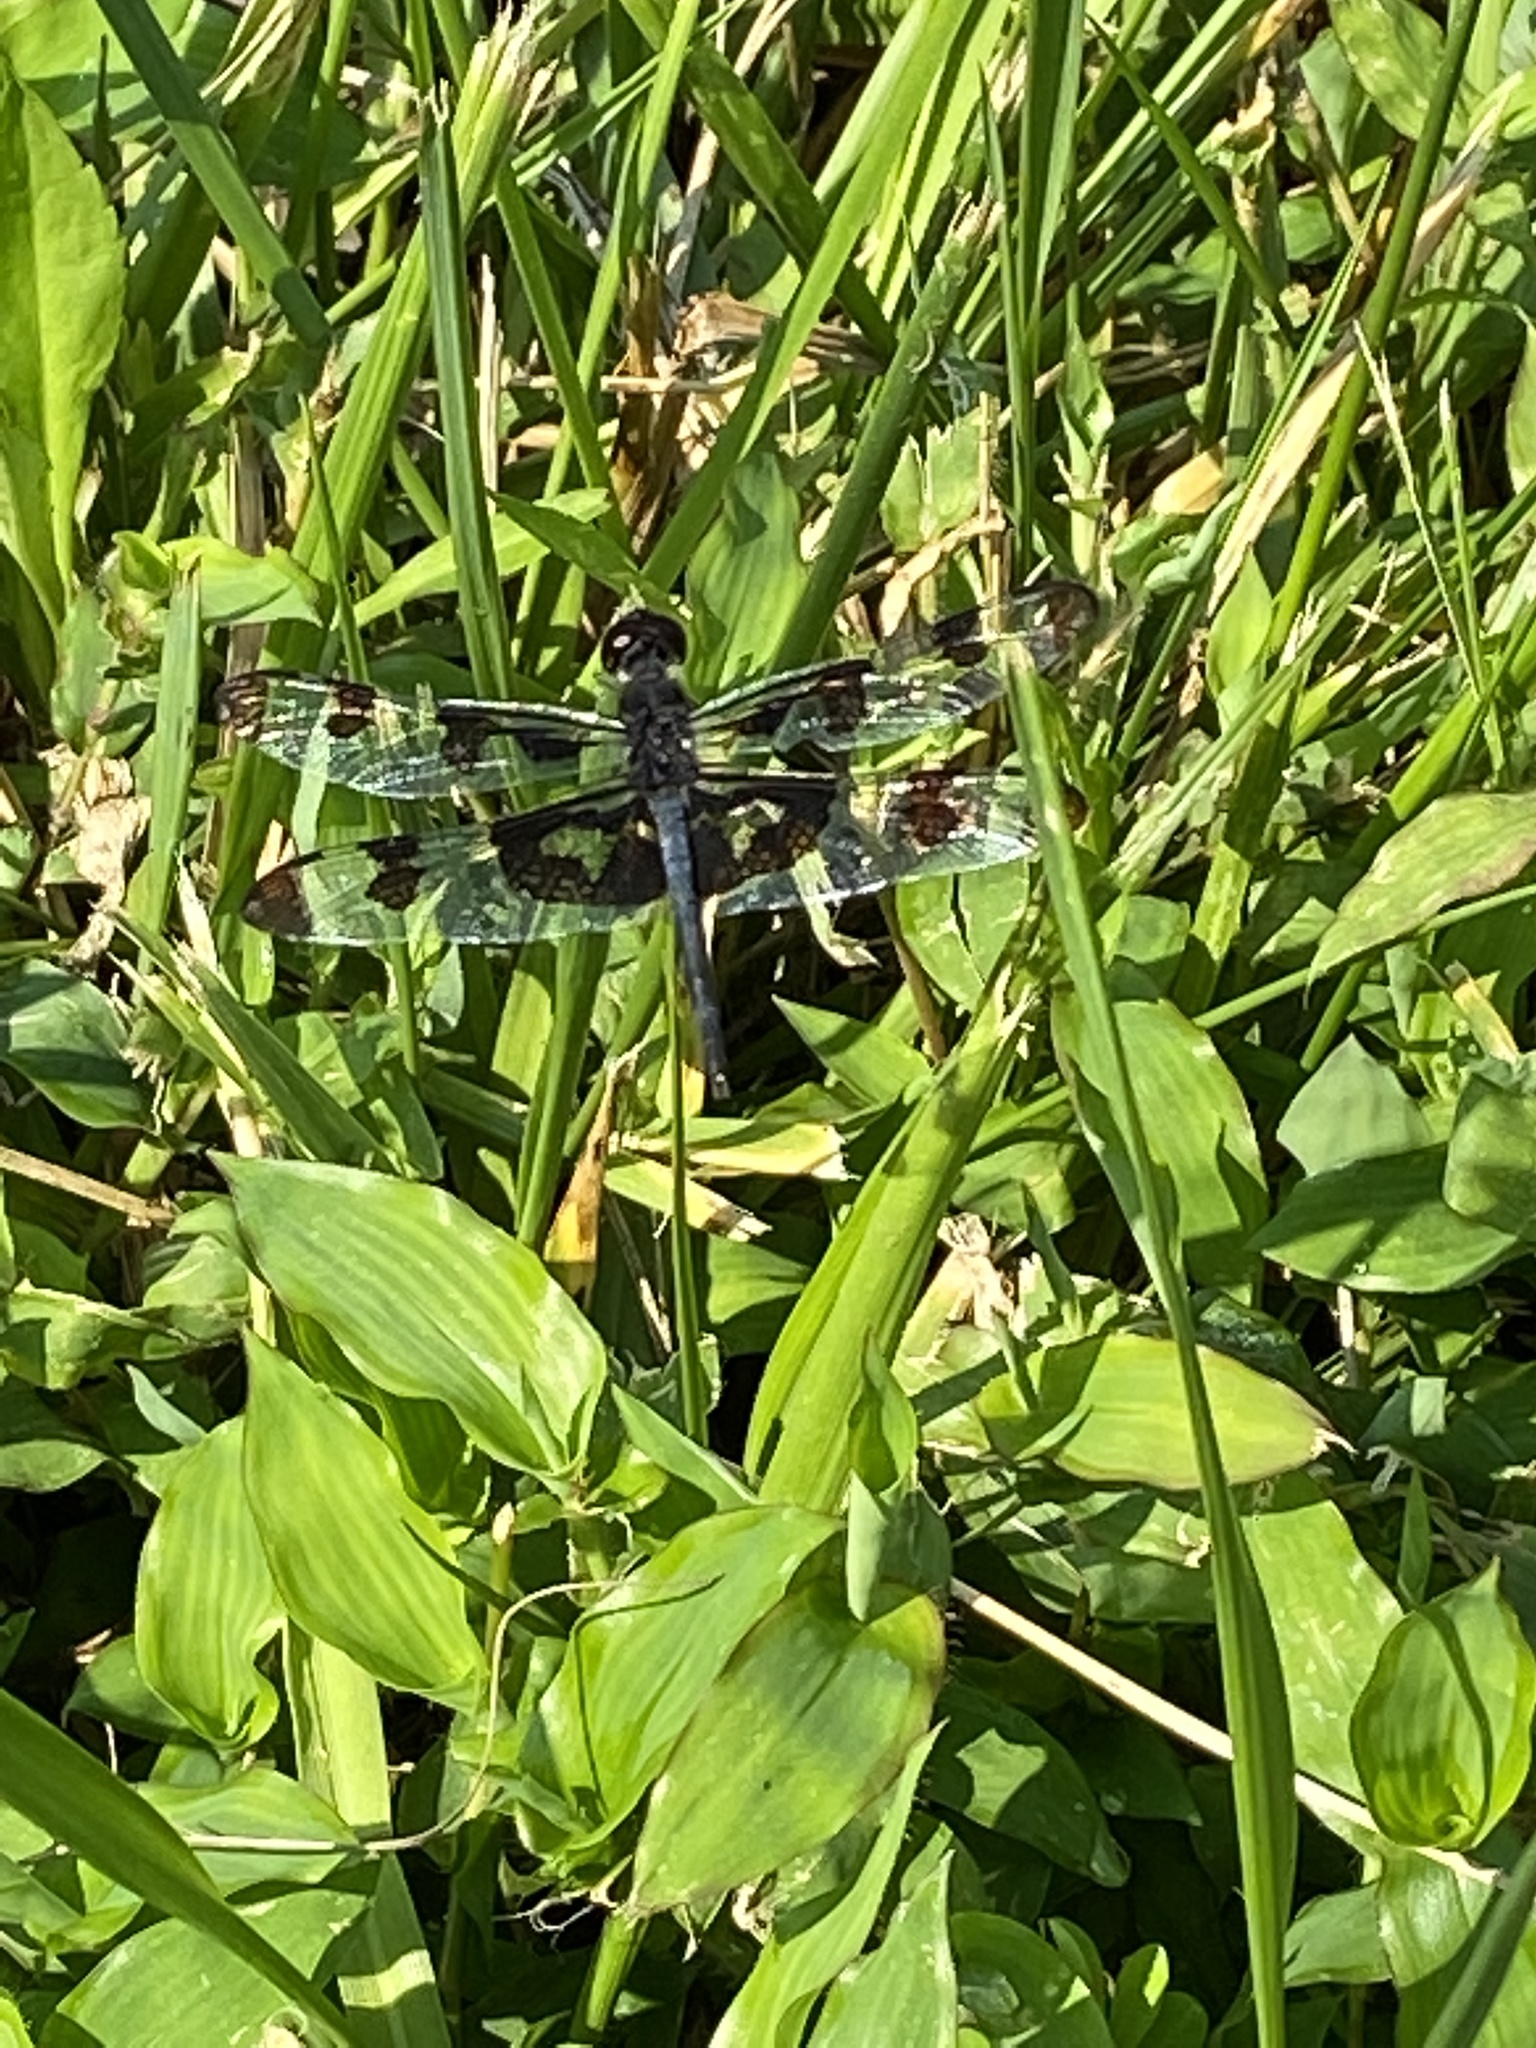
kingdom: Animalia
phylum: Arthropoda
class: Insecta
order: Odonata
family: Libellulidae
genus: Celithemis
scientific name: Celithemis fasciata
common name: Banded pennant
